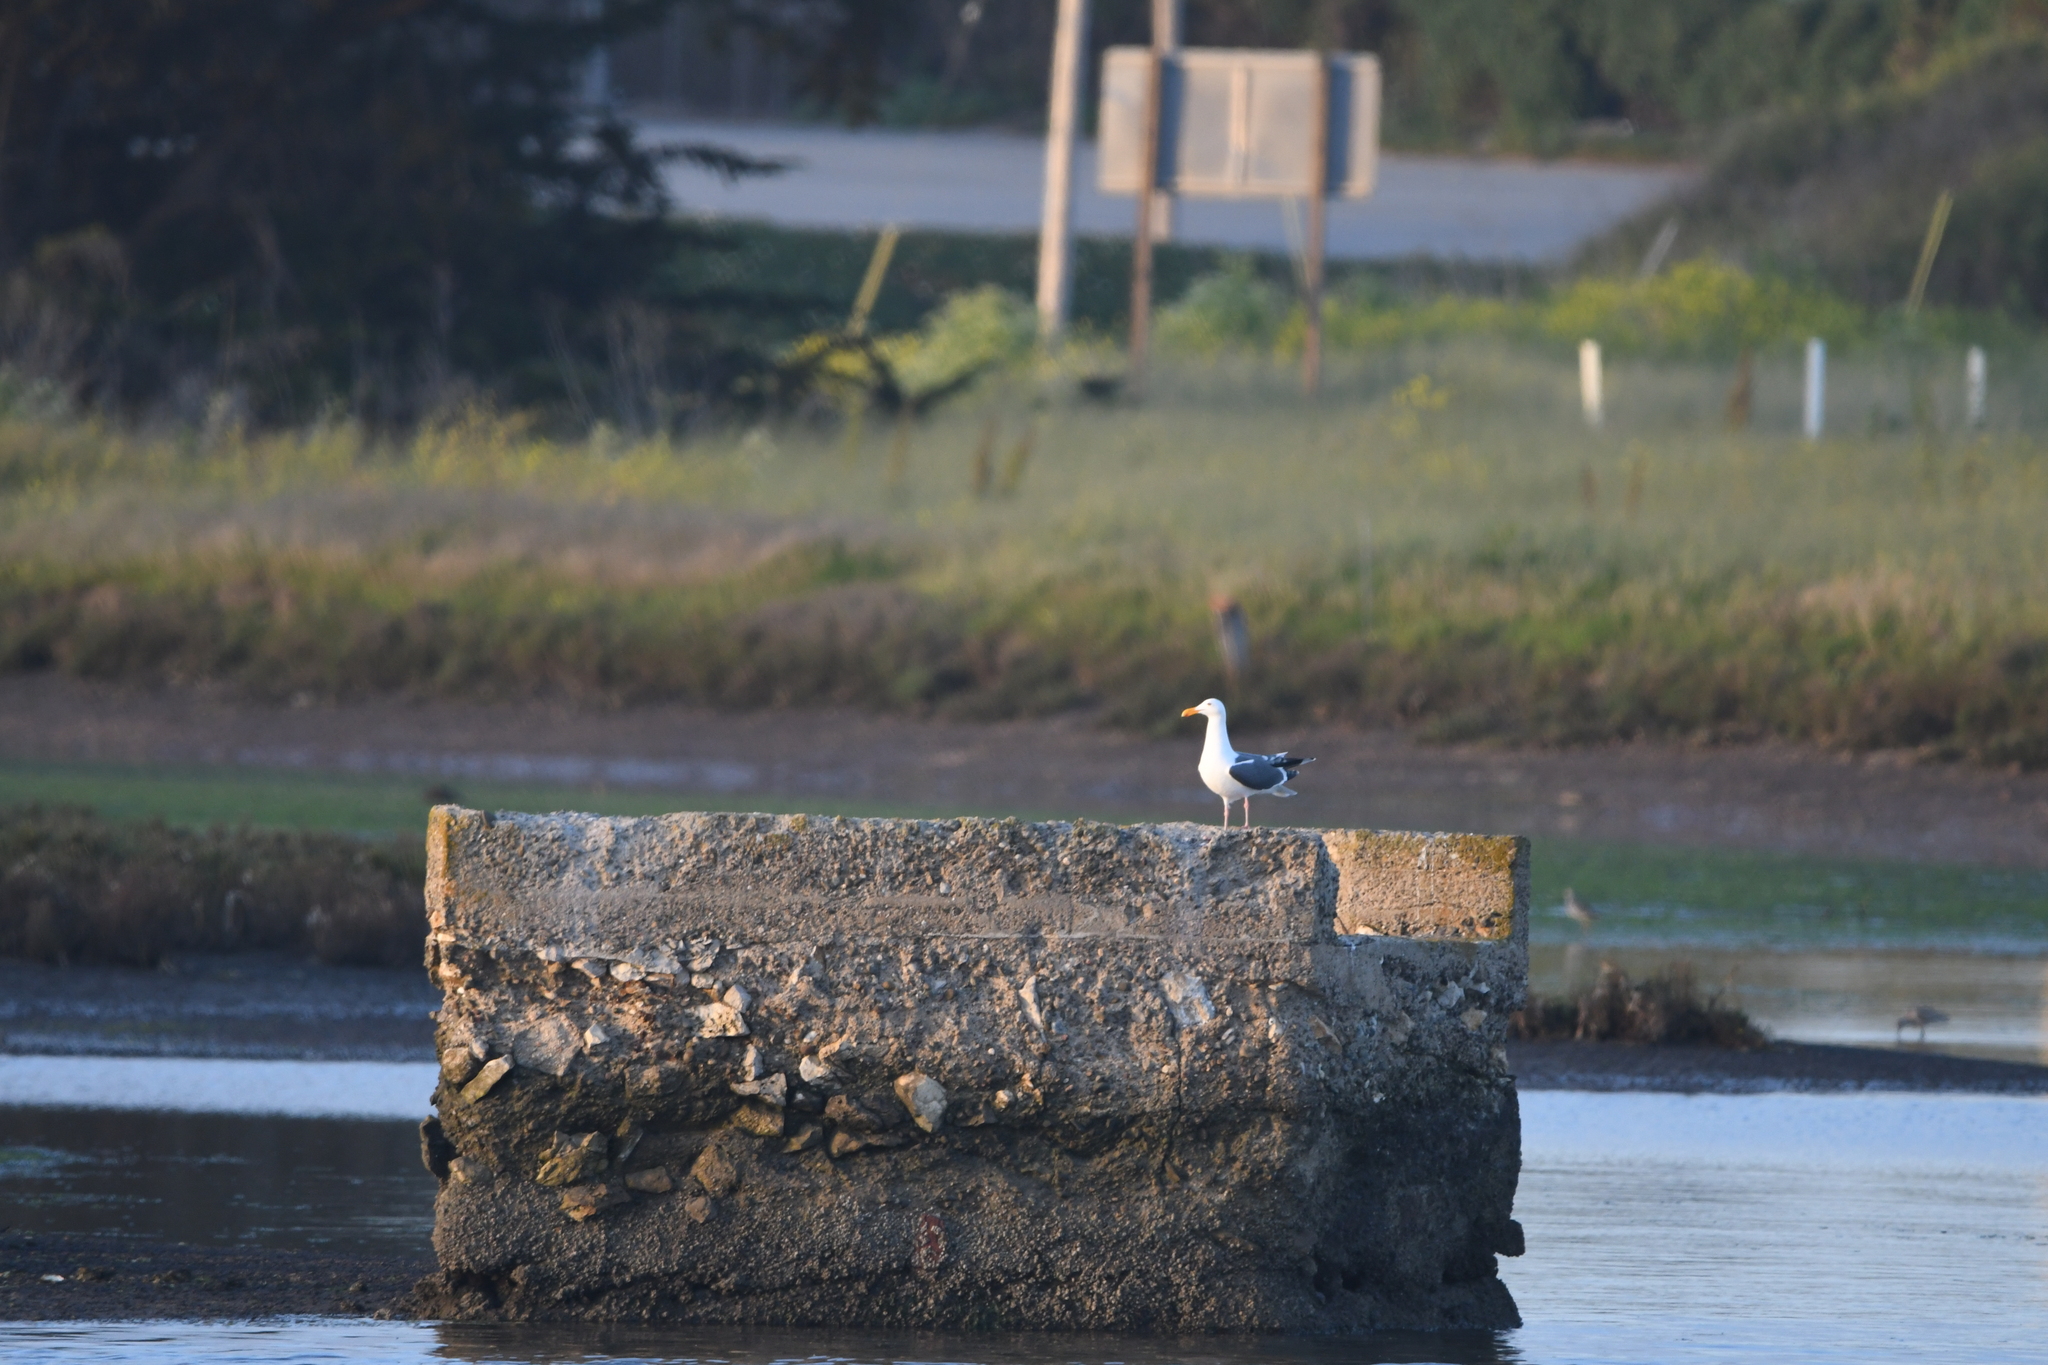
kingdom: Animalia
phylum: Chordata
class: Aves
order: Charadriiformes
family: Laridae
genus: Larus
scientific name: Larus occidentalis
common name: Western gull
